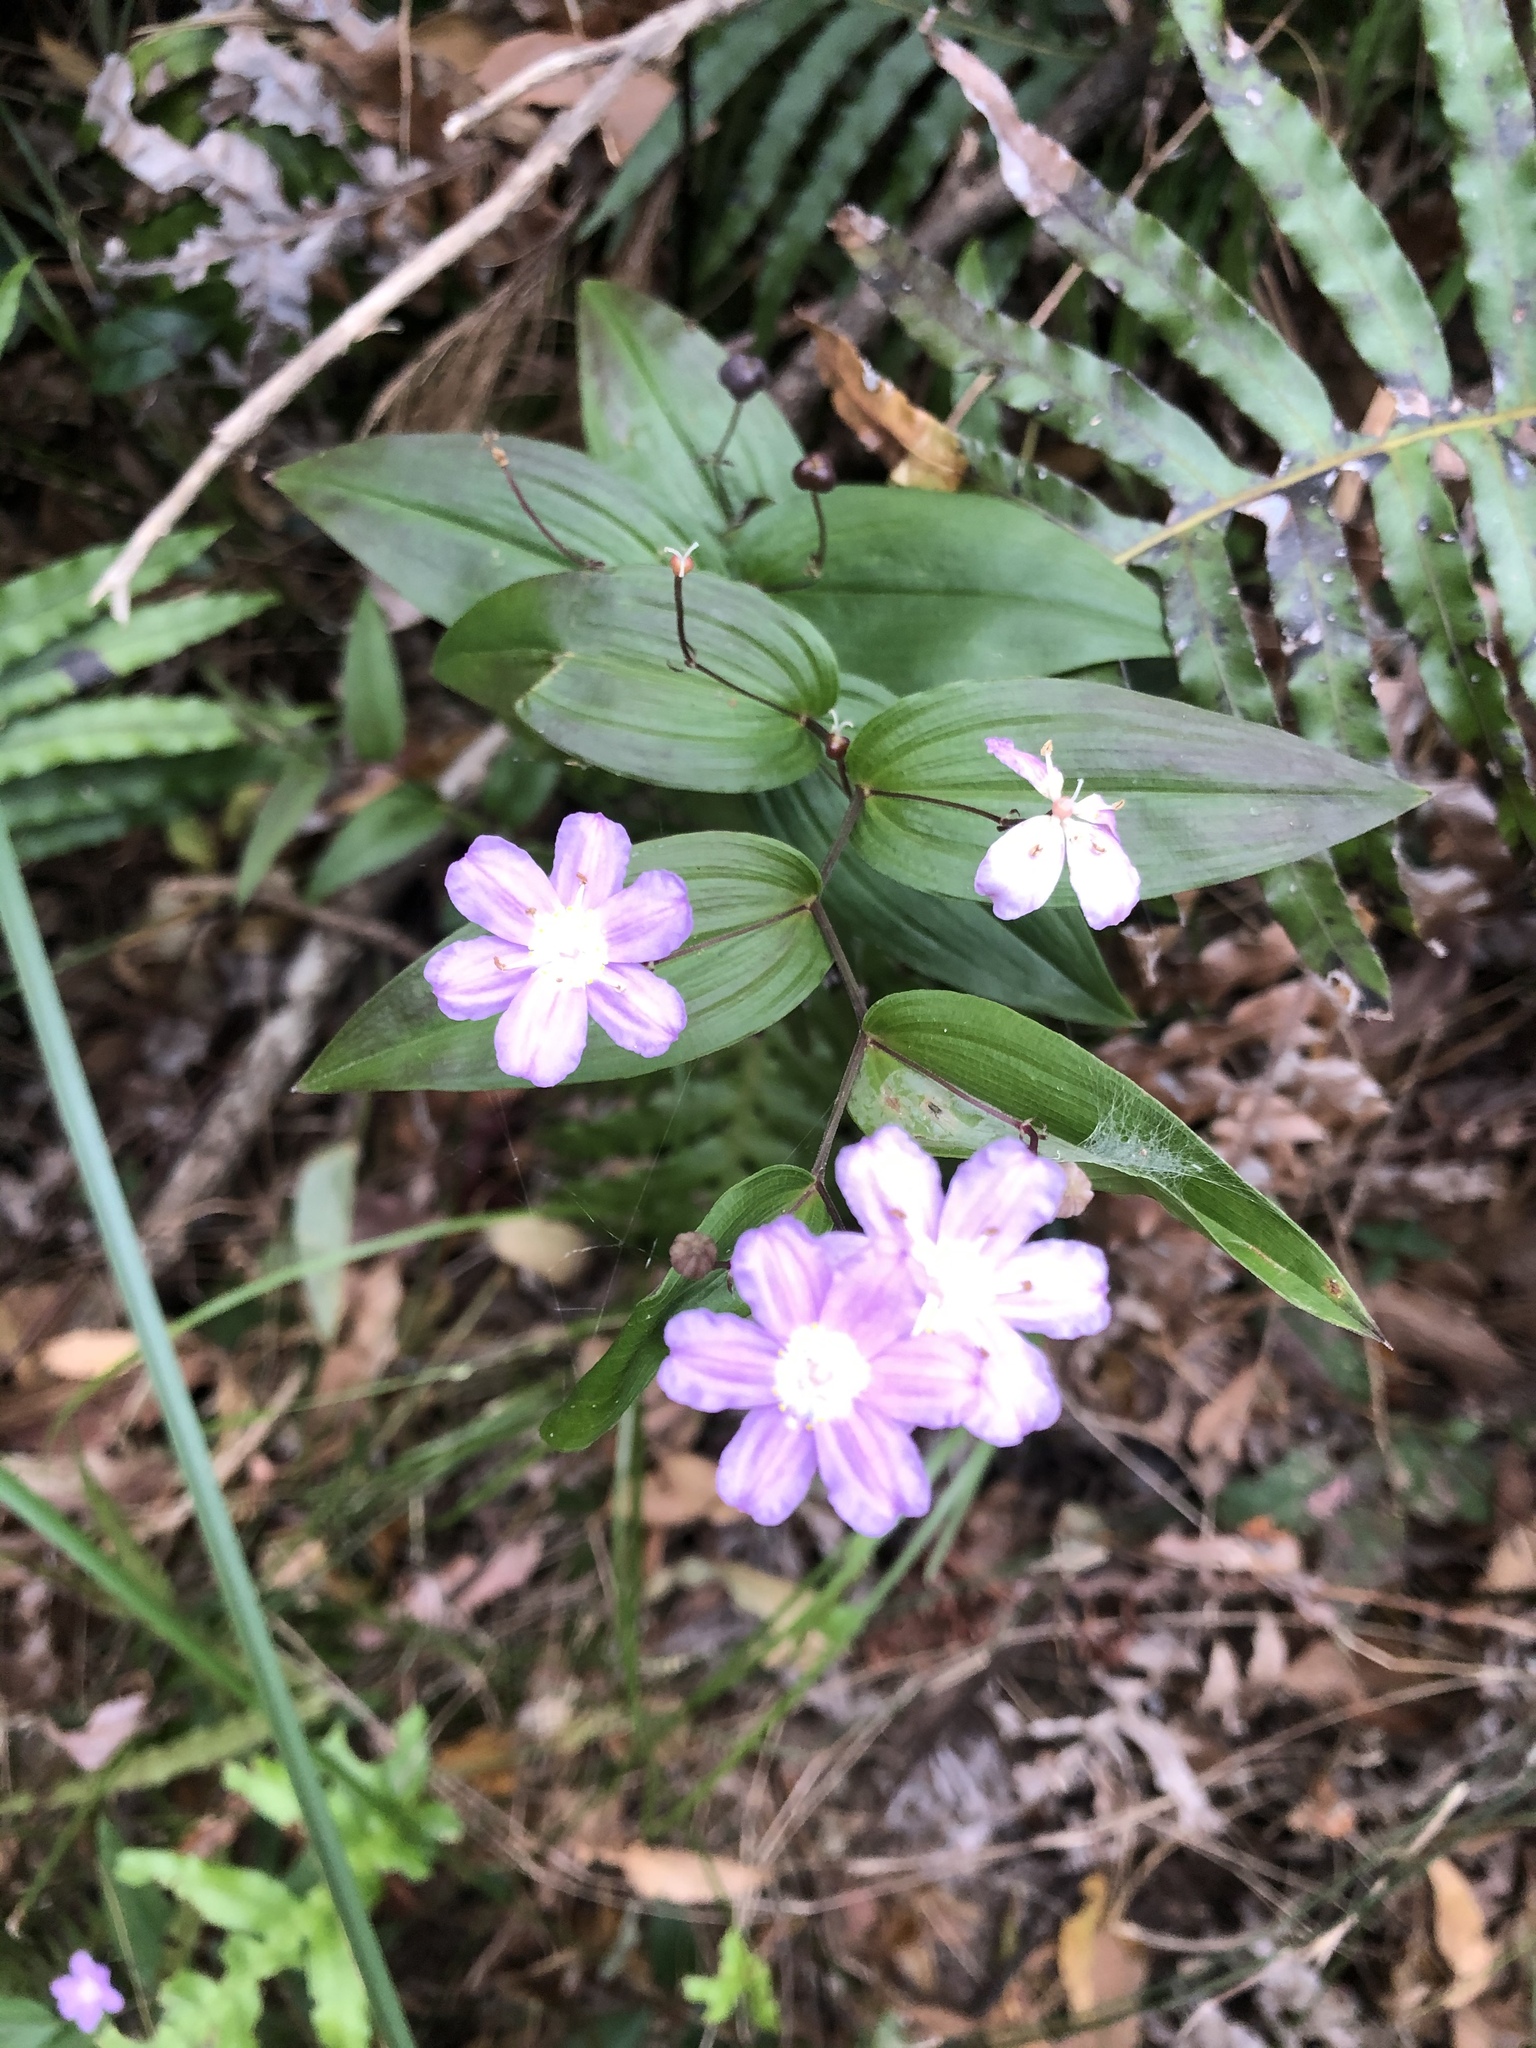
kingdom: Plantae
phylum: Tracheophyta
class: Liliopsida
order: Liliales
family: Colchicaceae
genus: Tripladenia
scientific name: Tripladenia cunninghamii
